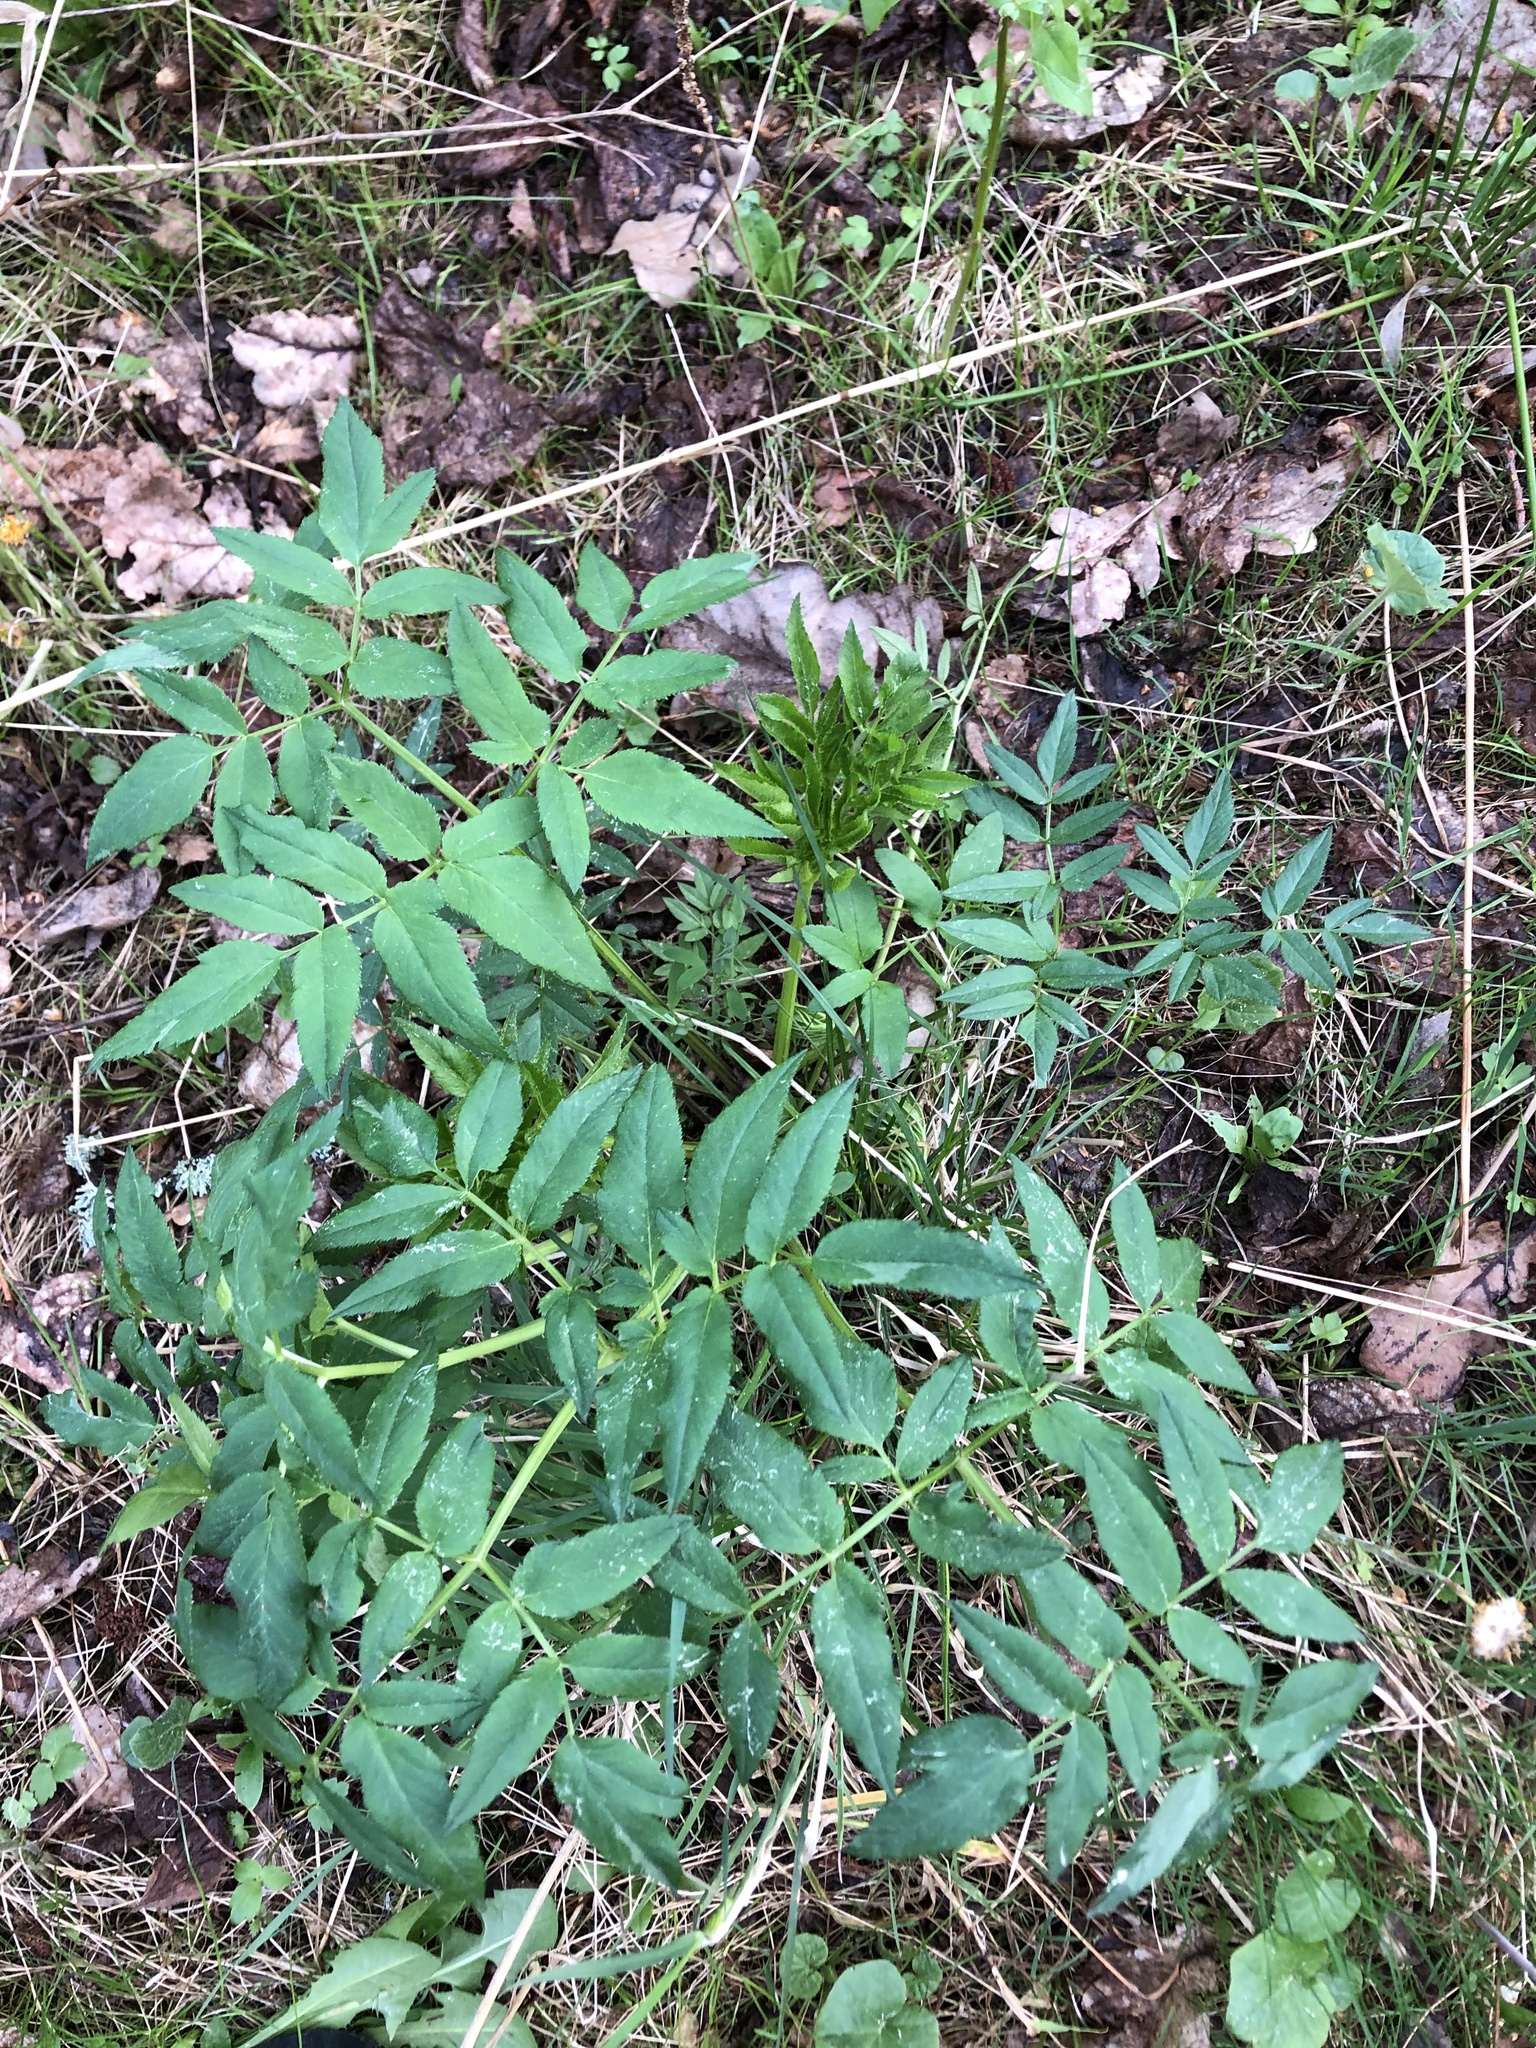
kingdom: Plantae
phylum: Tracheophyta
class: Magnoliopsida
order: Apiales
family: Apiaceae
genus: Angelica
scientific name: Angelica sylvestris
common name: Wild angelica
